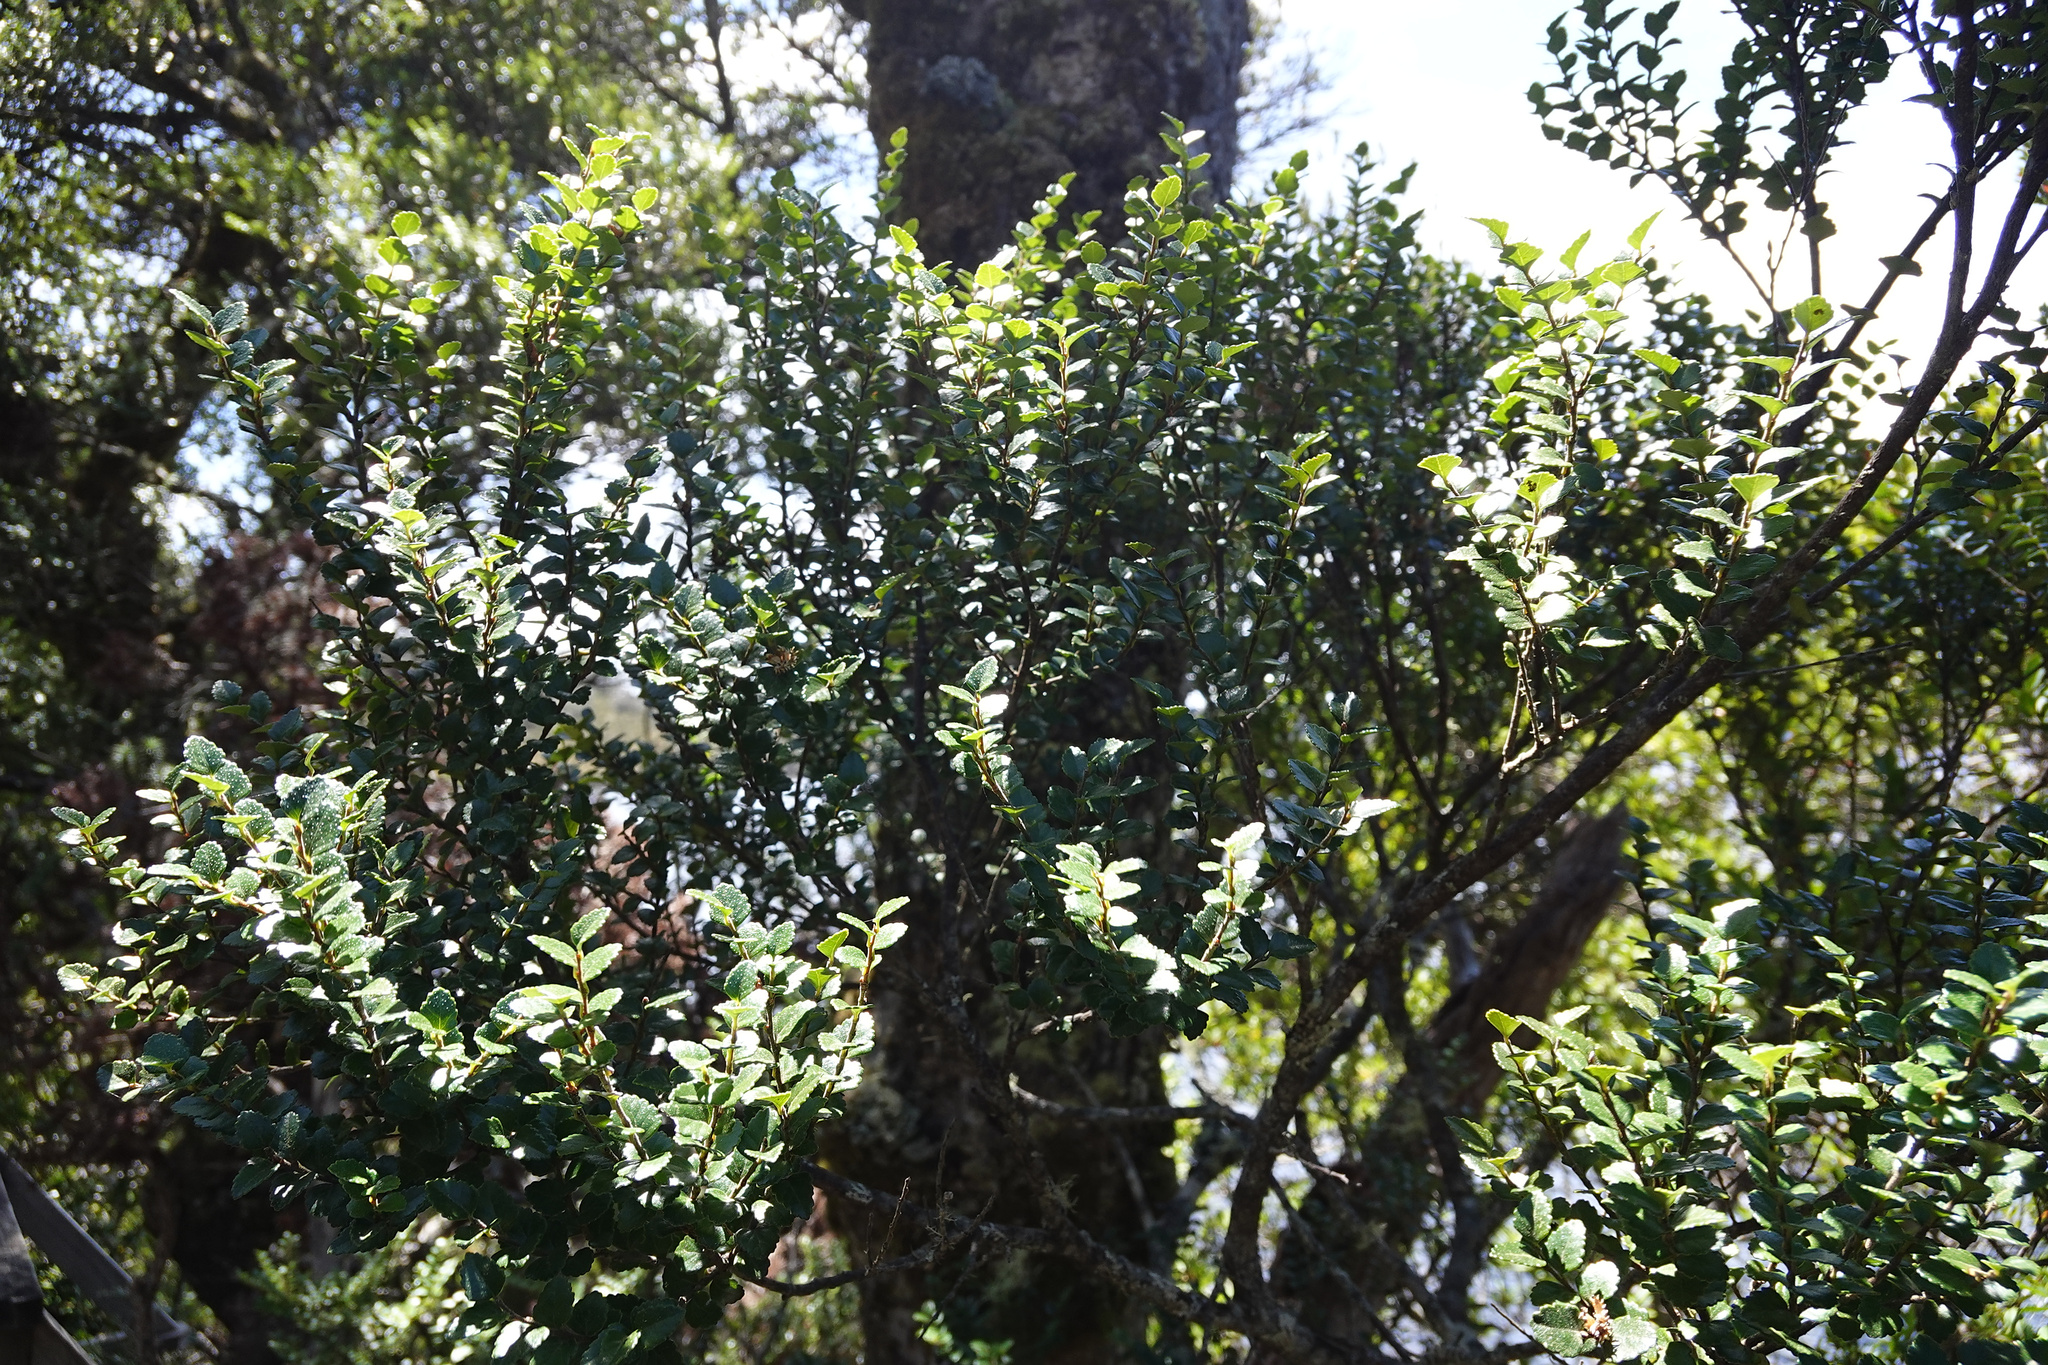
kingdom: Plantae
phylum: Tracheophyta
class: Magnoliopsida
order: Fagales
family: Nothofagaceae
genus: Nothofagus
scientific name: Nothofagus cunninghamii
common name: Myrtle beech
